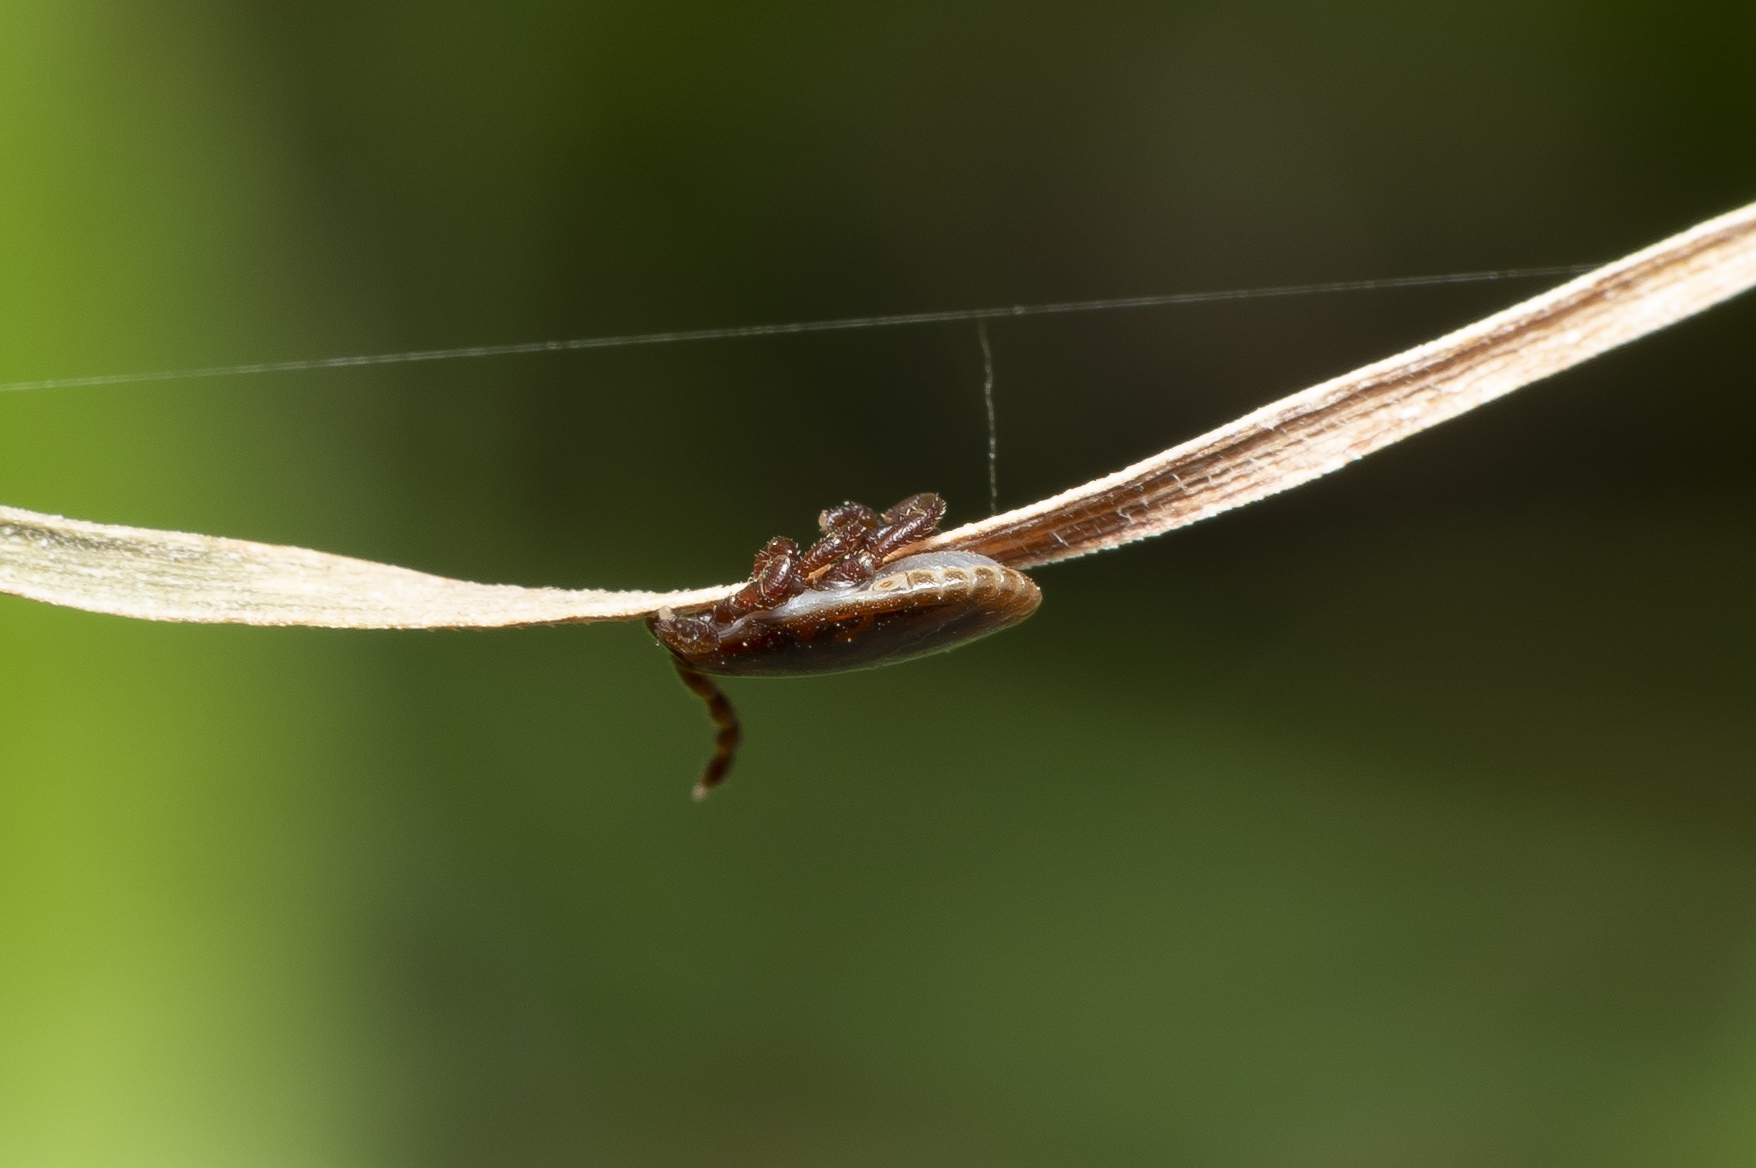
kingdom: Animalia
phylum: Arthropoda
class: Arachnida
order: Ixodida
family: Ixodidae
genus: Haemaphysalis
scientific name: Haemaphysalis parva
